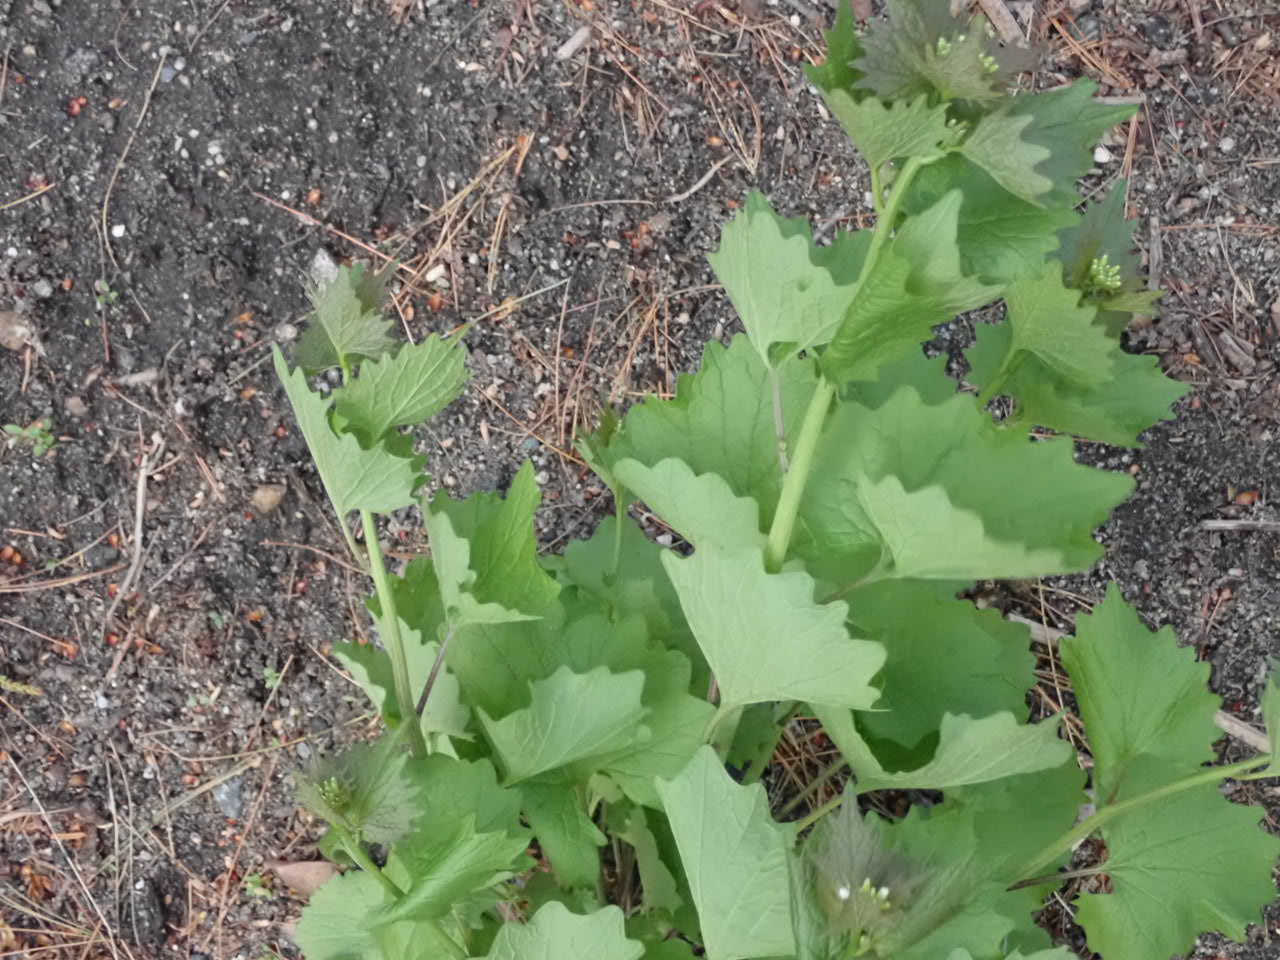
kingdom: Plantae
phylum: Tracheophyta
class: Magnoliopsida
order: Brassicales
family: Brassicaceae
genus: Alliaria
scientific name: Alliaria petiolata
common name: Garlic mustard
